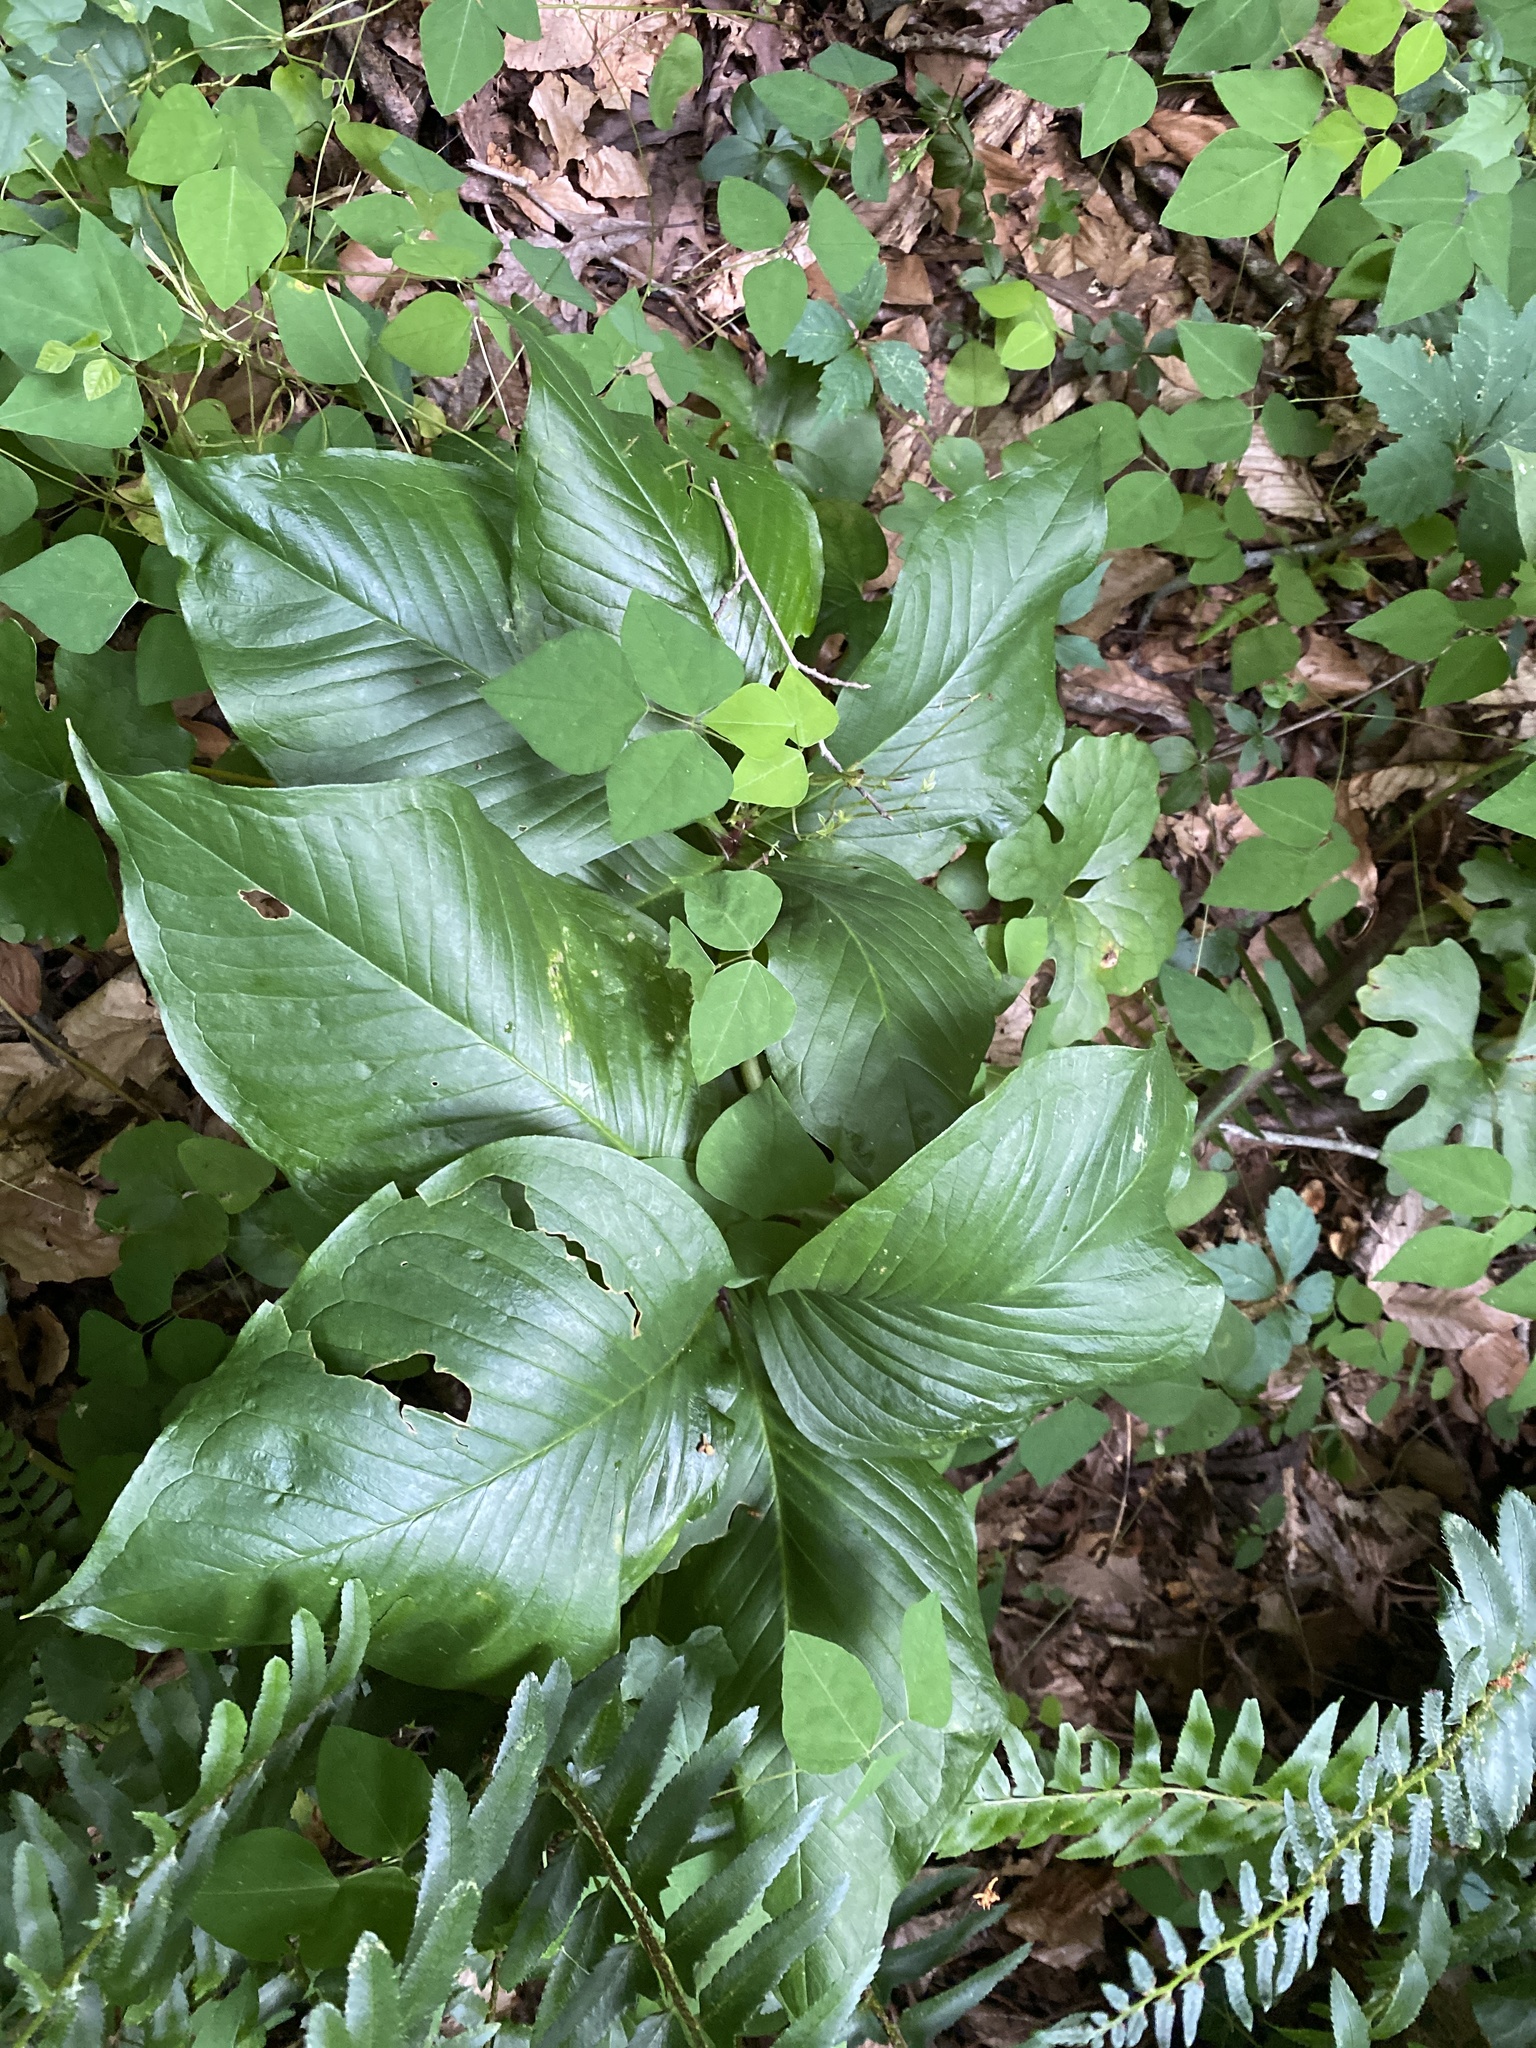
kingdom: Plantae
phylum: Tracheophyta
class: Liliopsida
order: Alismatales
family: Araceae
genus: Arisaema
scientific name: Arisaema quinatum
